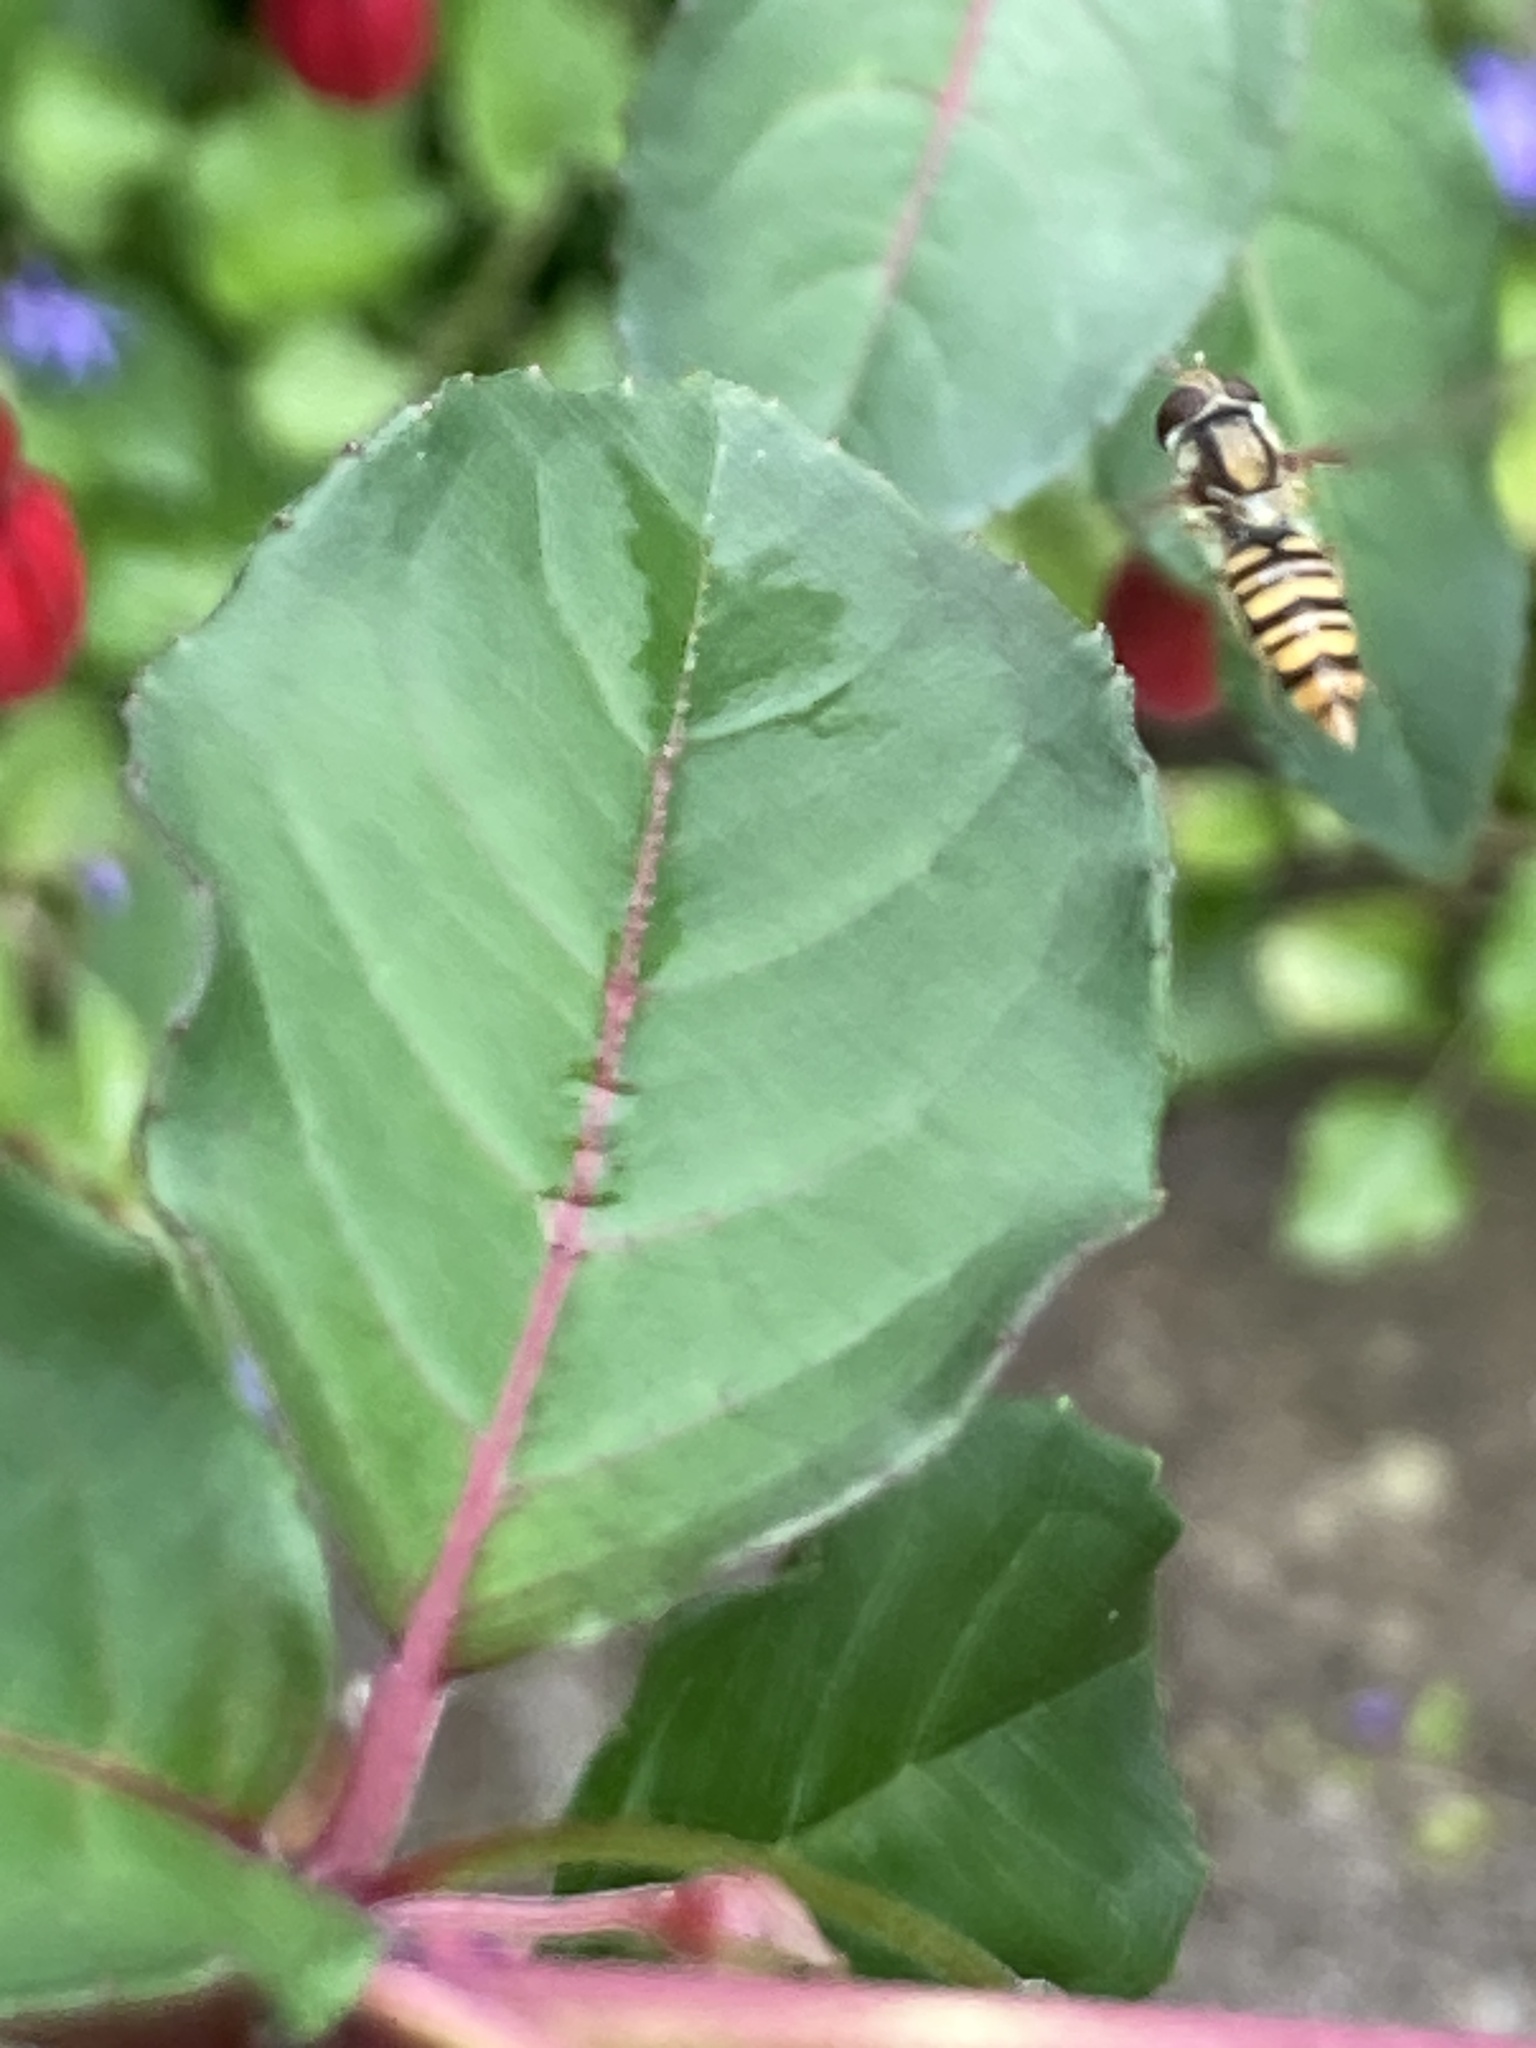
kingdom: Animalia
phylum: Arthropoda
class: Insecta
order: Diptera
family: Syrphidae
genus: Episyrphus
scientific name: Episyrphus balteatus
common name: Marmalade hoverfly
